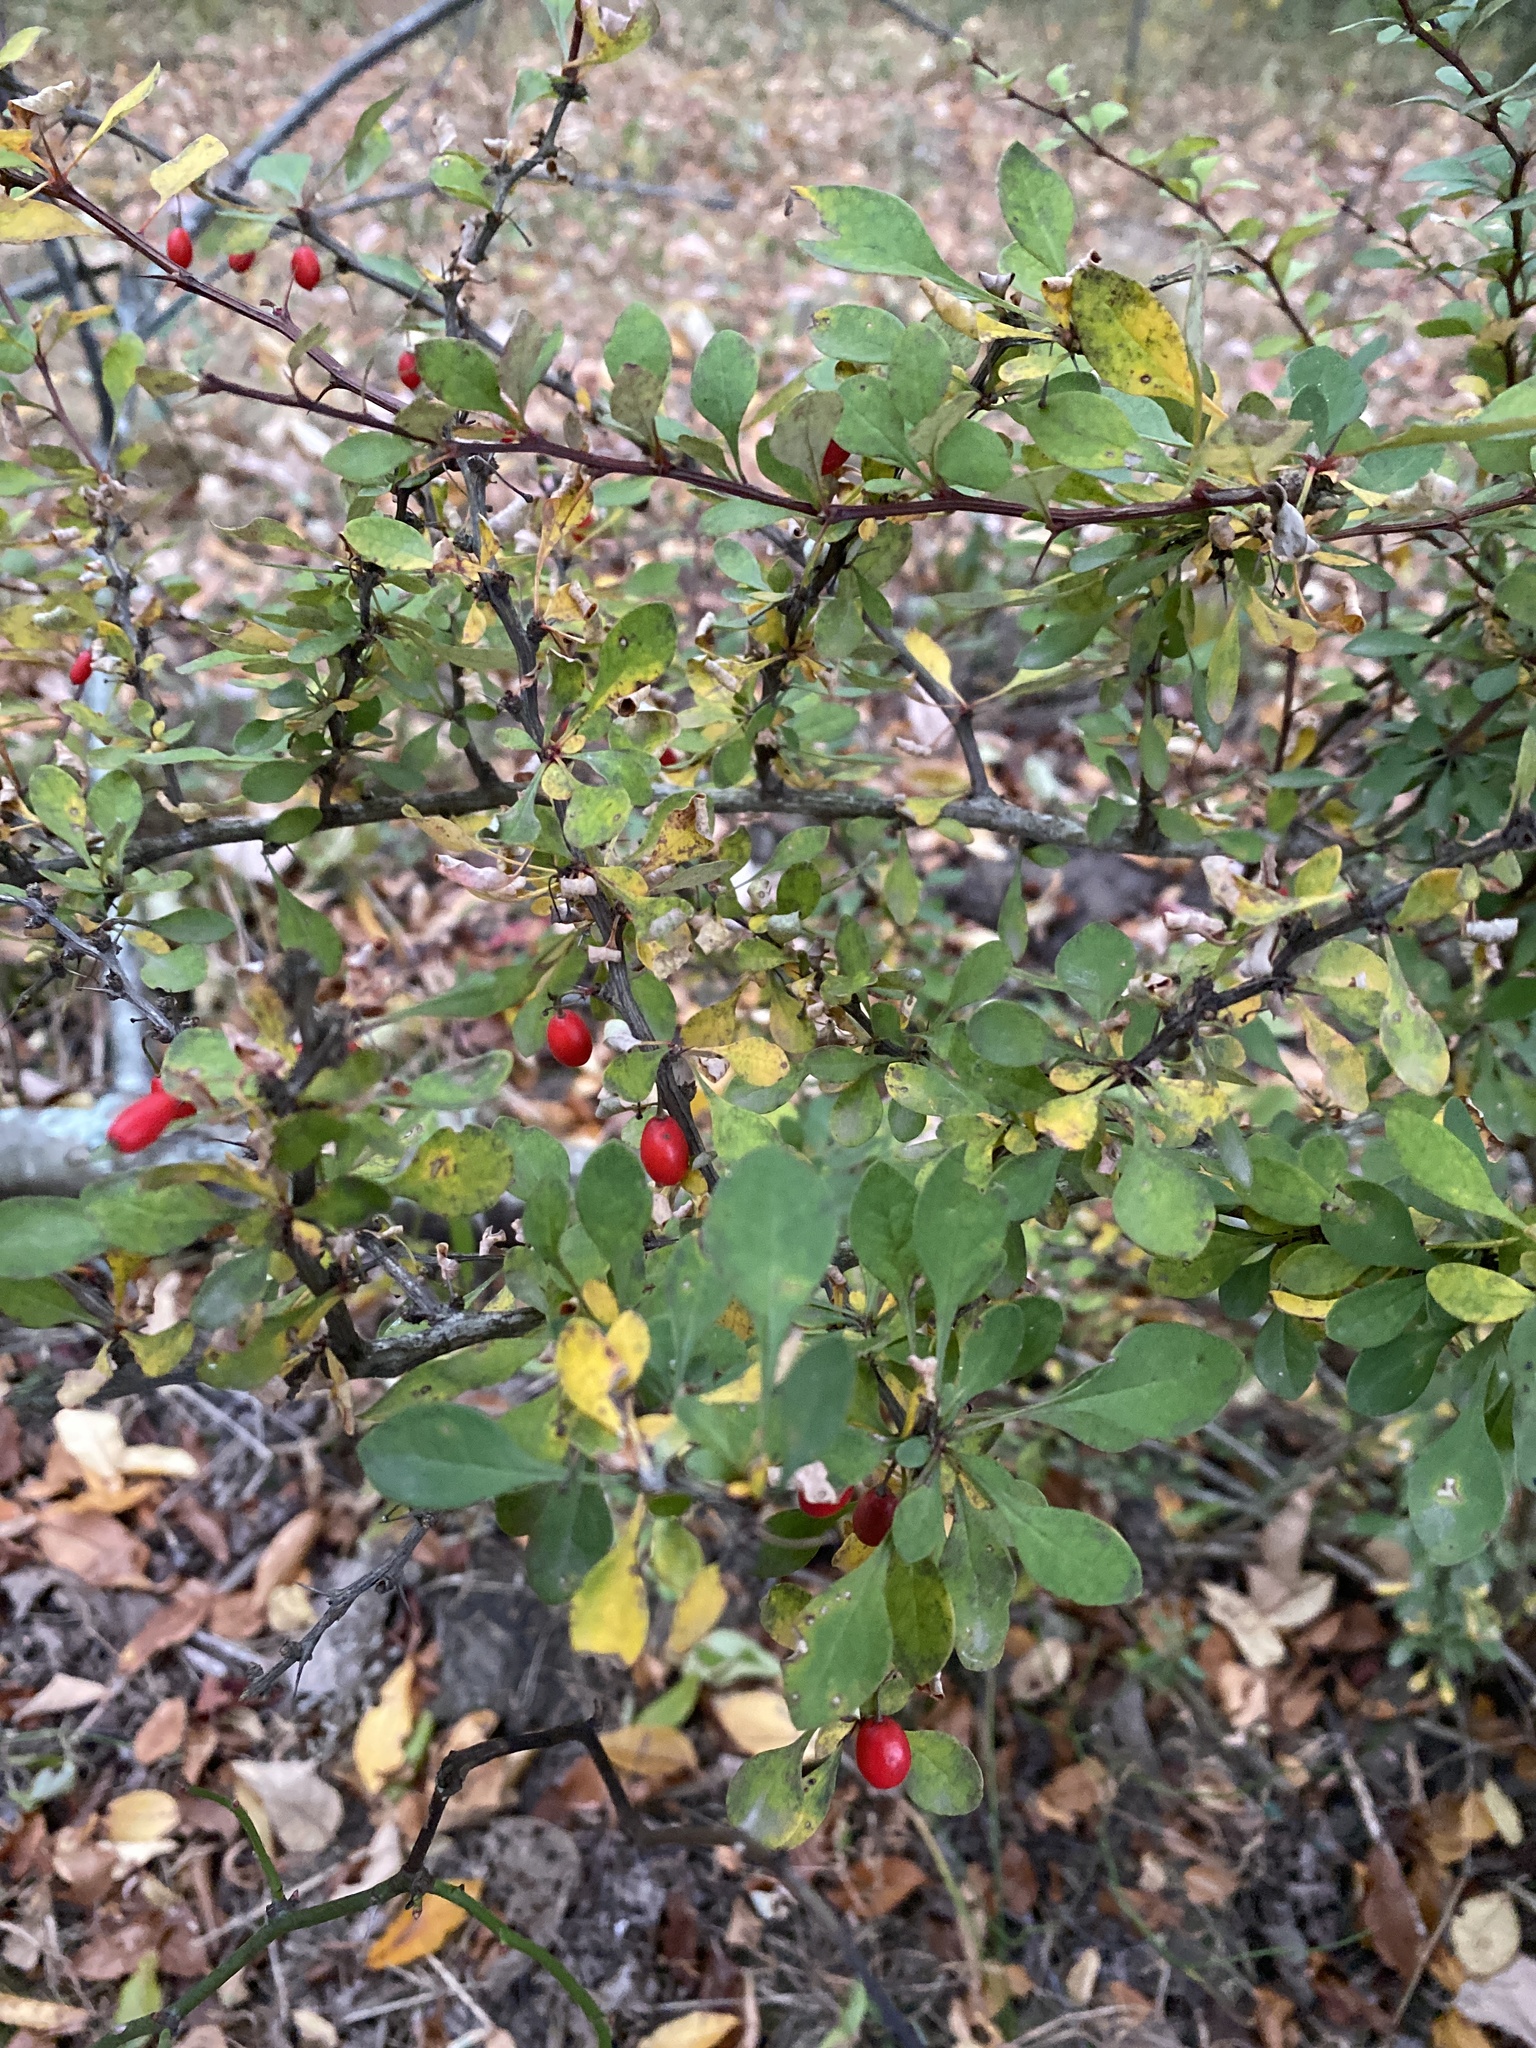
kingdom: Plantae
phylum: Tracheophyta
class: Magnoliopsida
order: Ranunculales
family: Berberidaceae
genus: Berberis
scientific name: Berberis thunbergii
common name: Japanese barberry
